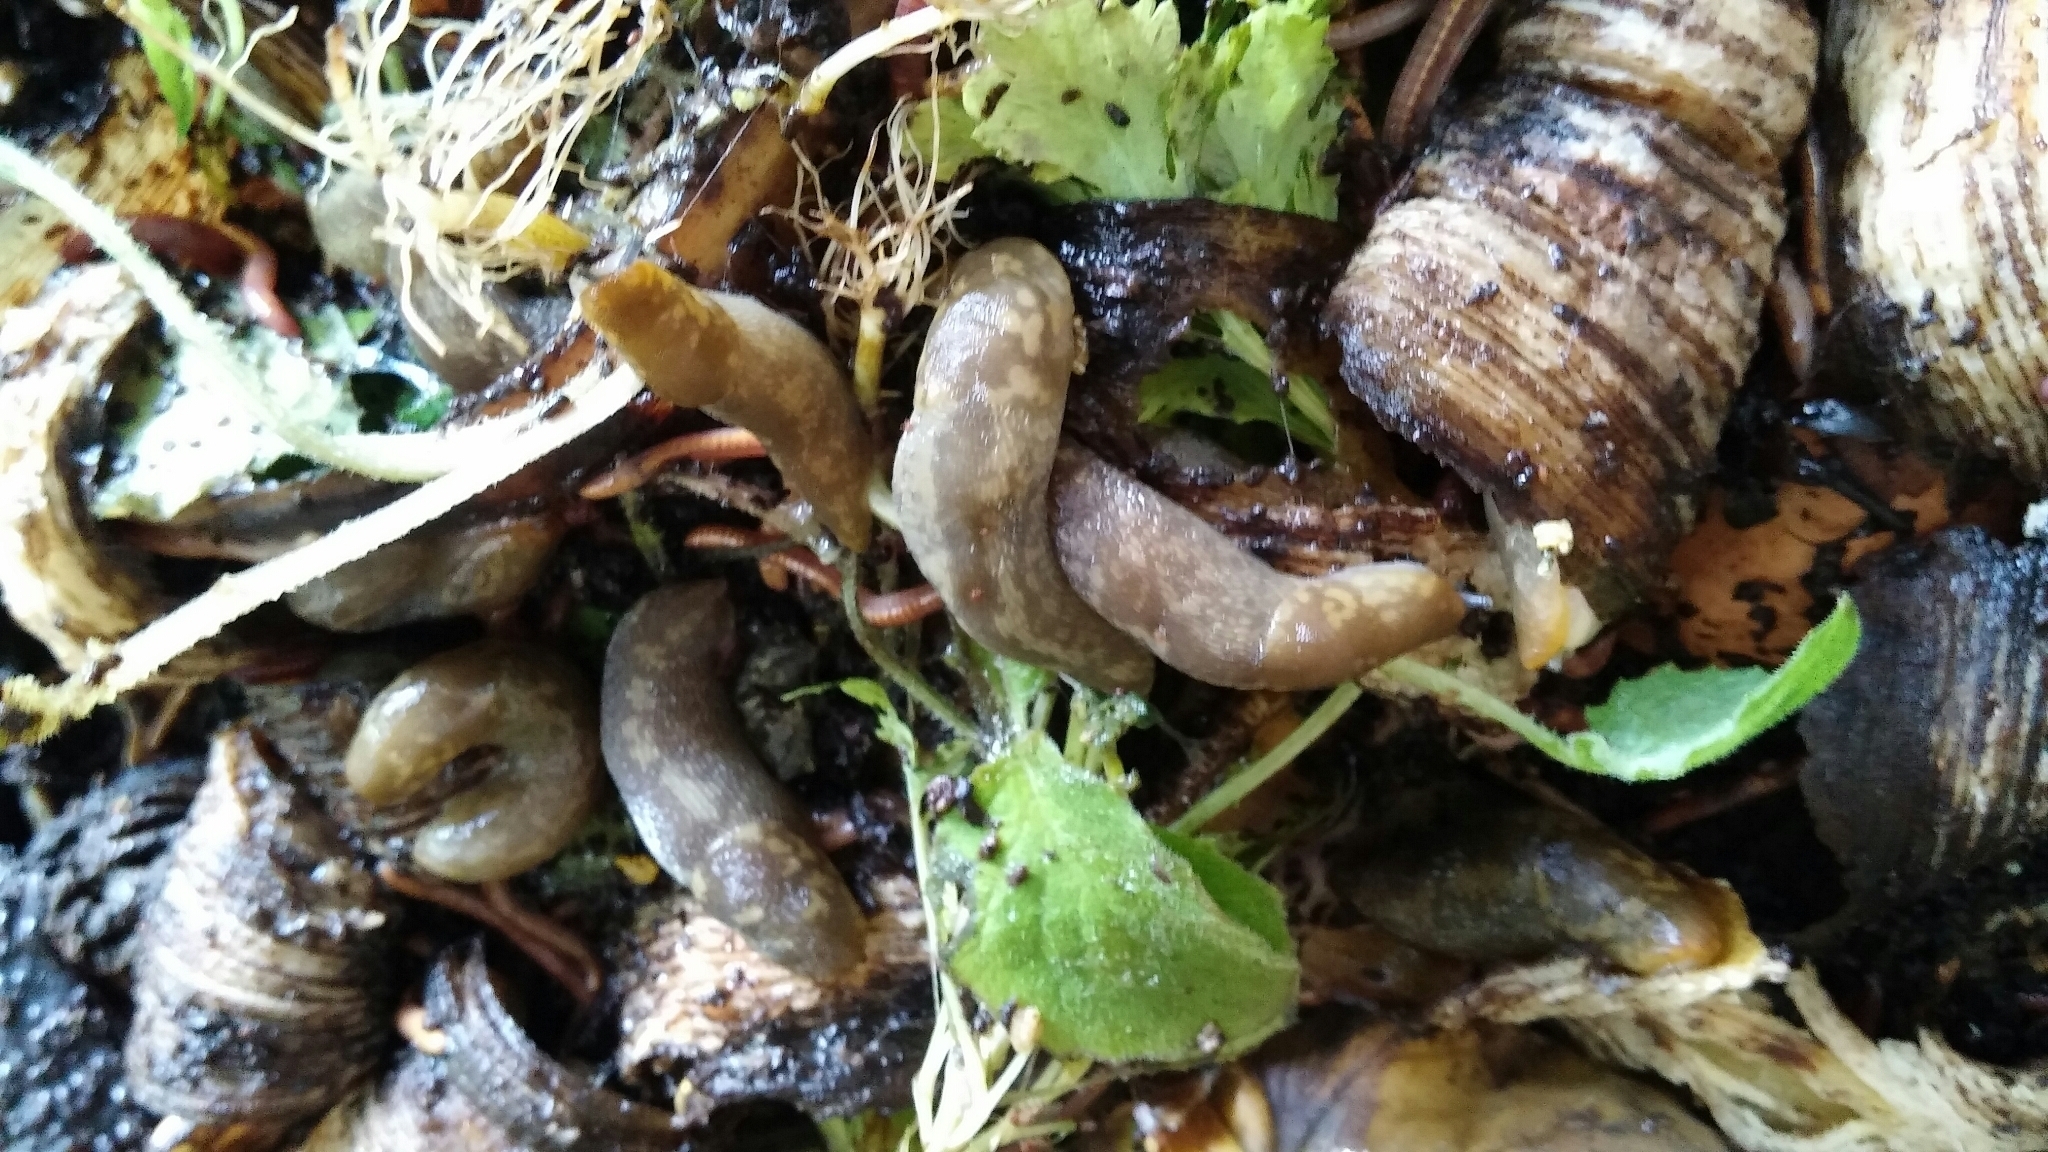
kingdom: Animalia
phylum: Mollusca
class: Gastropoda
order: Stylommatophora
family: Limacidae
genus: Limacus
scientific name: Limacus flavus
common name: Yellow gardenslug
